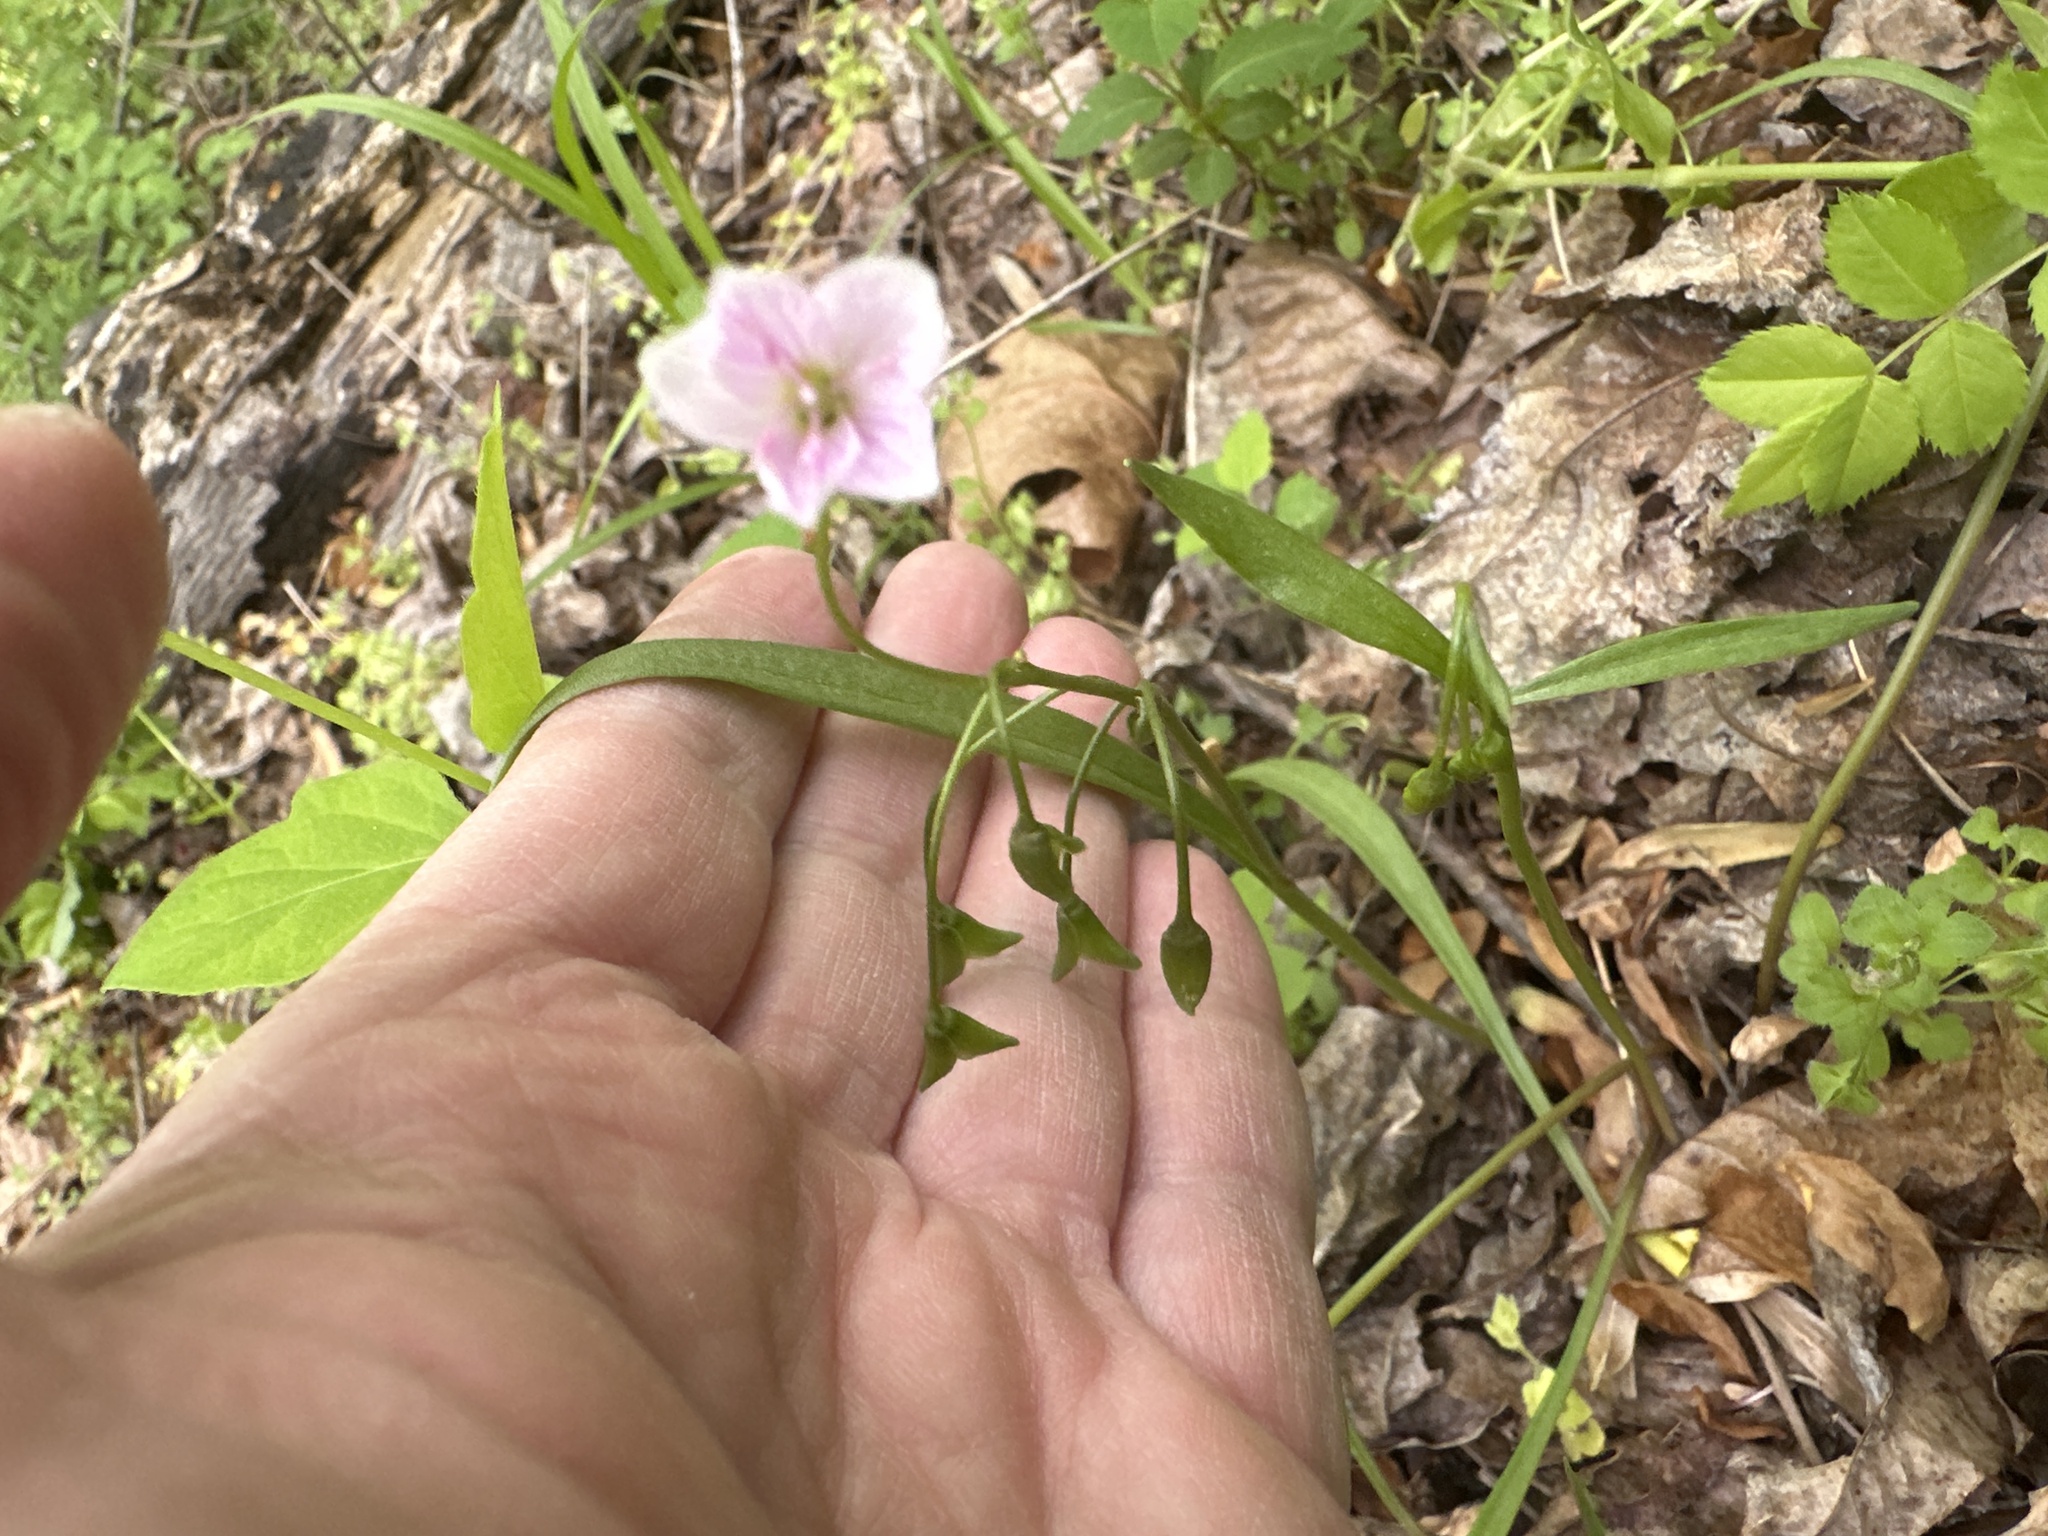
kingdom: Plantae
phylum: Tracheophyta
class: Magnoliopsida
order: Caryophyllales
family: Montiaceae
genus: Claytonia
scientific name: Claytonia virginica
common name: Virginia springbeauty
